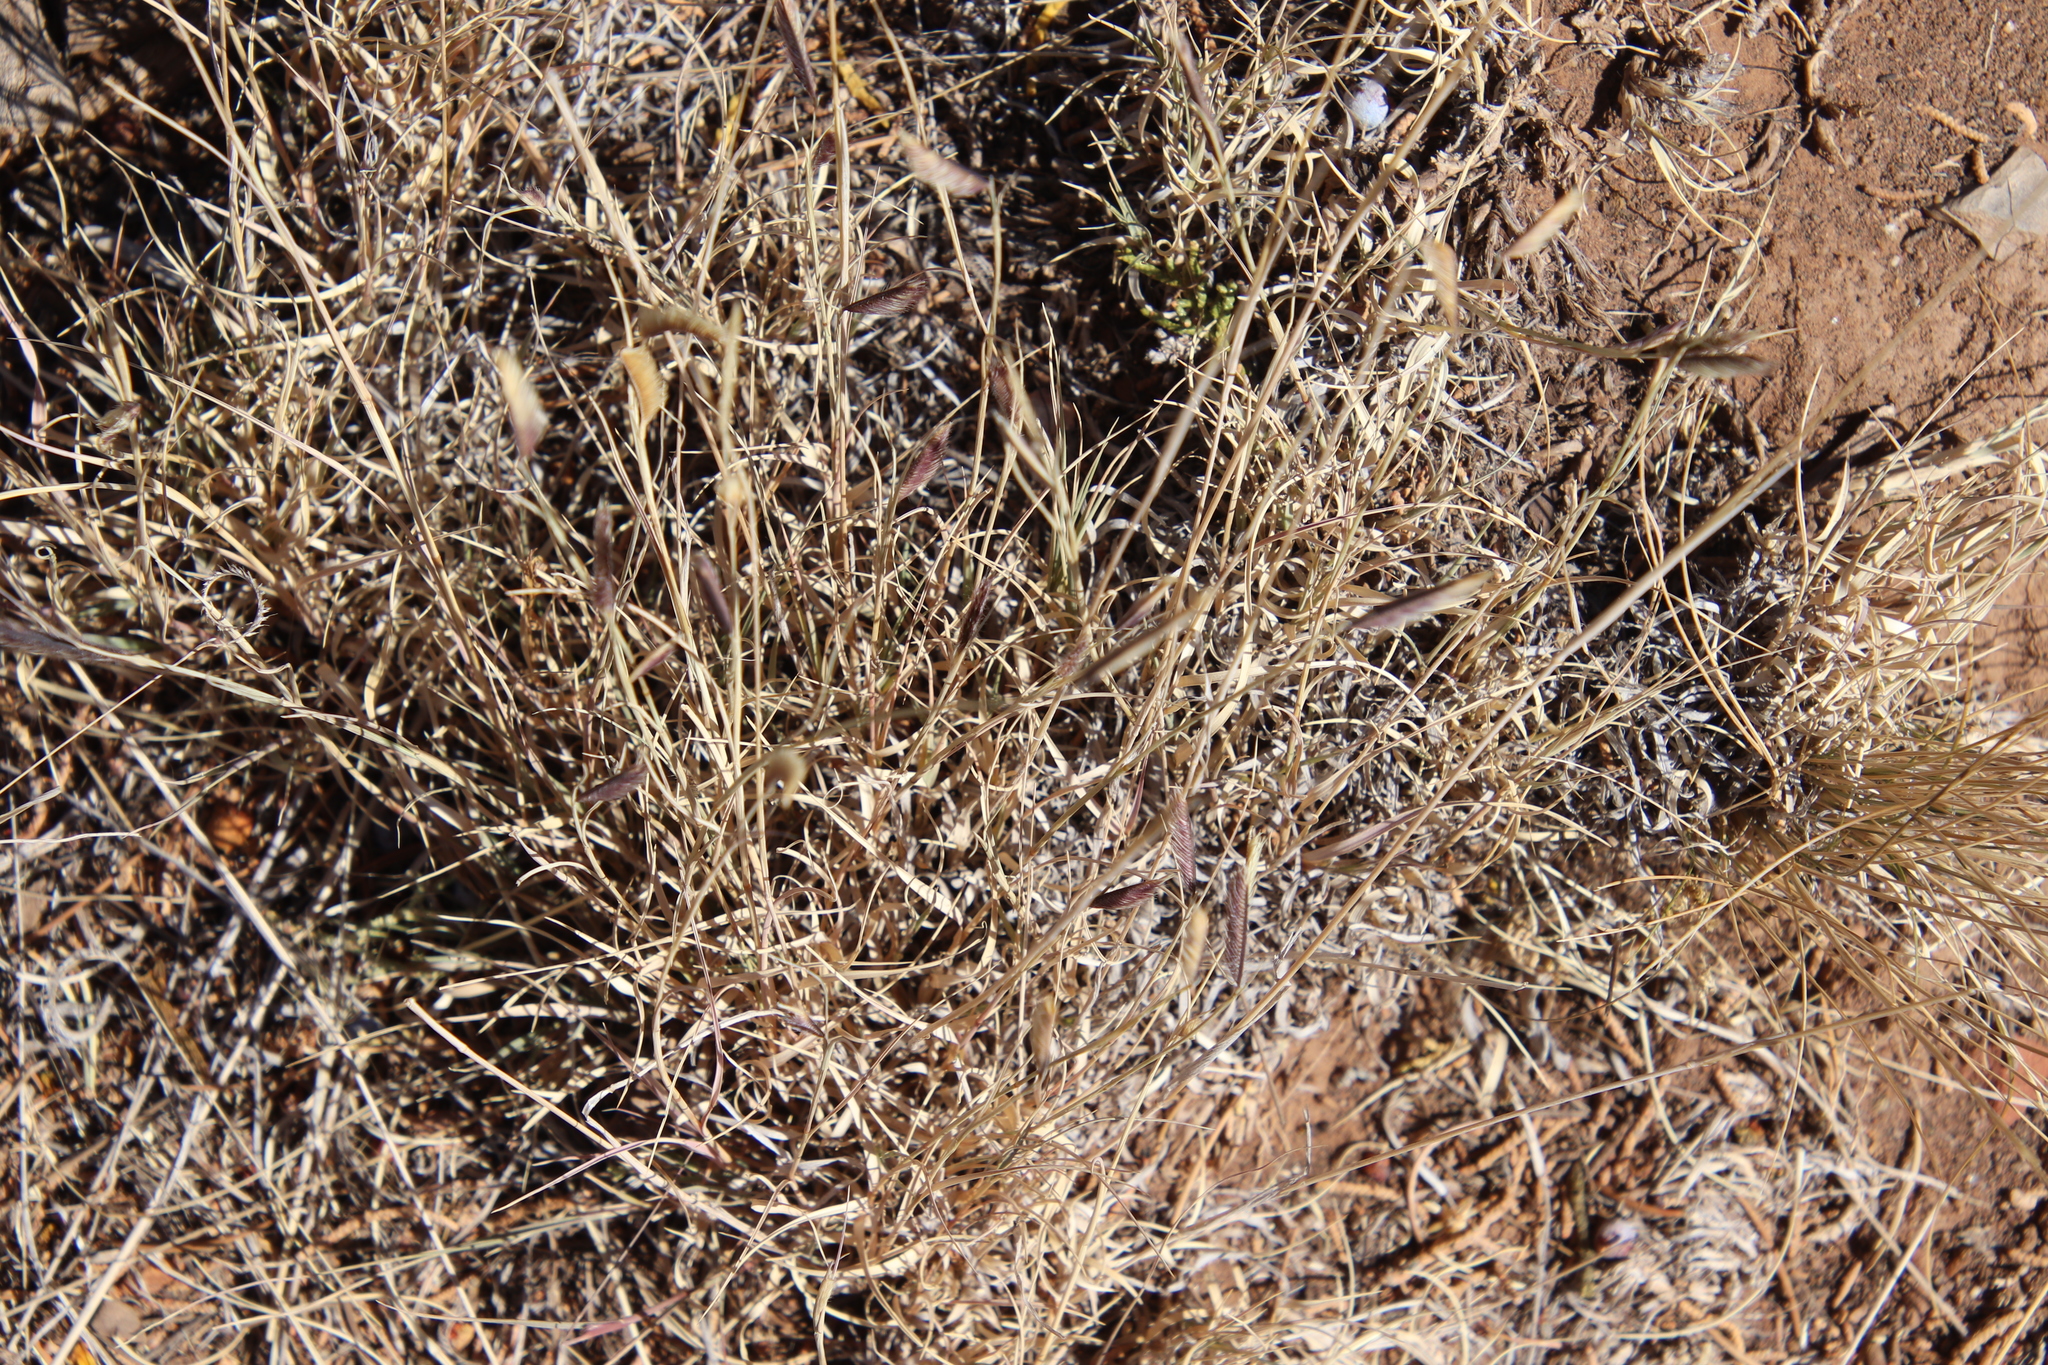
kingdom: Plantae
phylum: Tracheophyta
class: Liliopsida
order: Poales
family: Poaceae
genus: Bouteloua
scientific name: Bouteloua gracilis
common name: Blue grama
